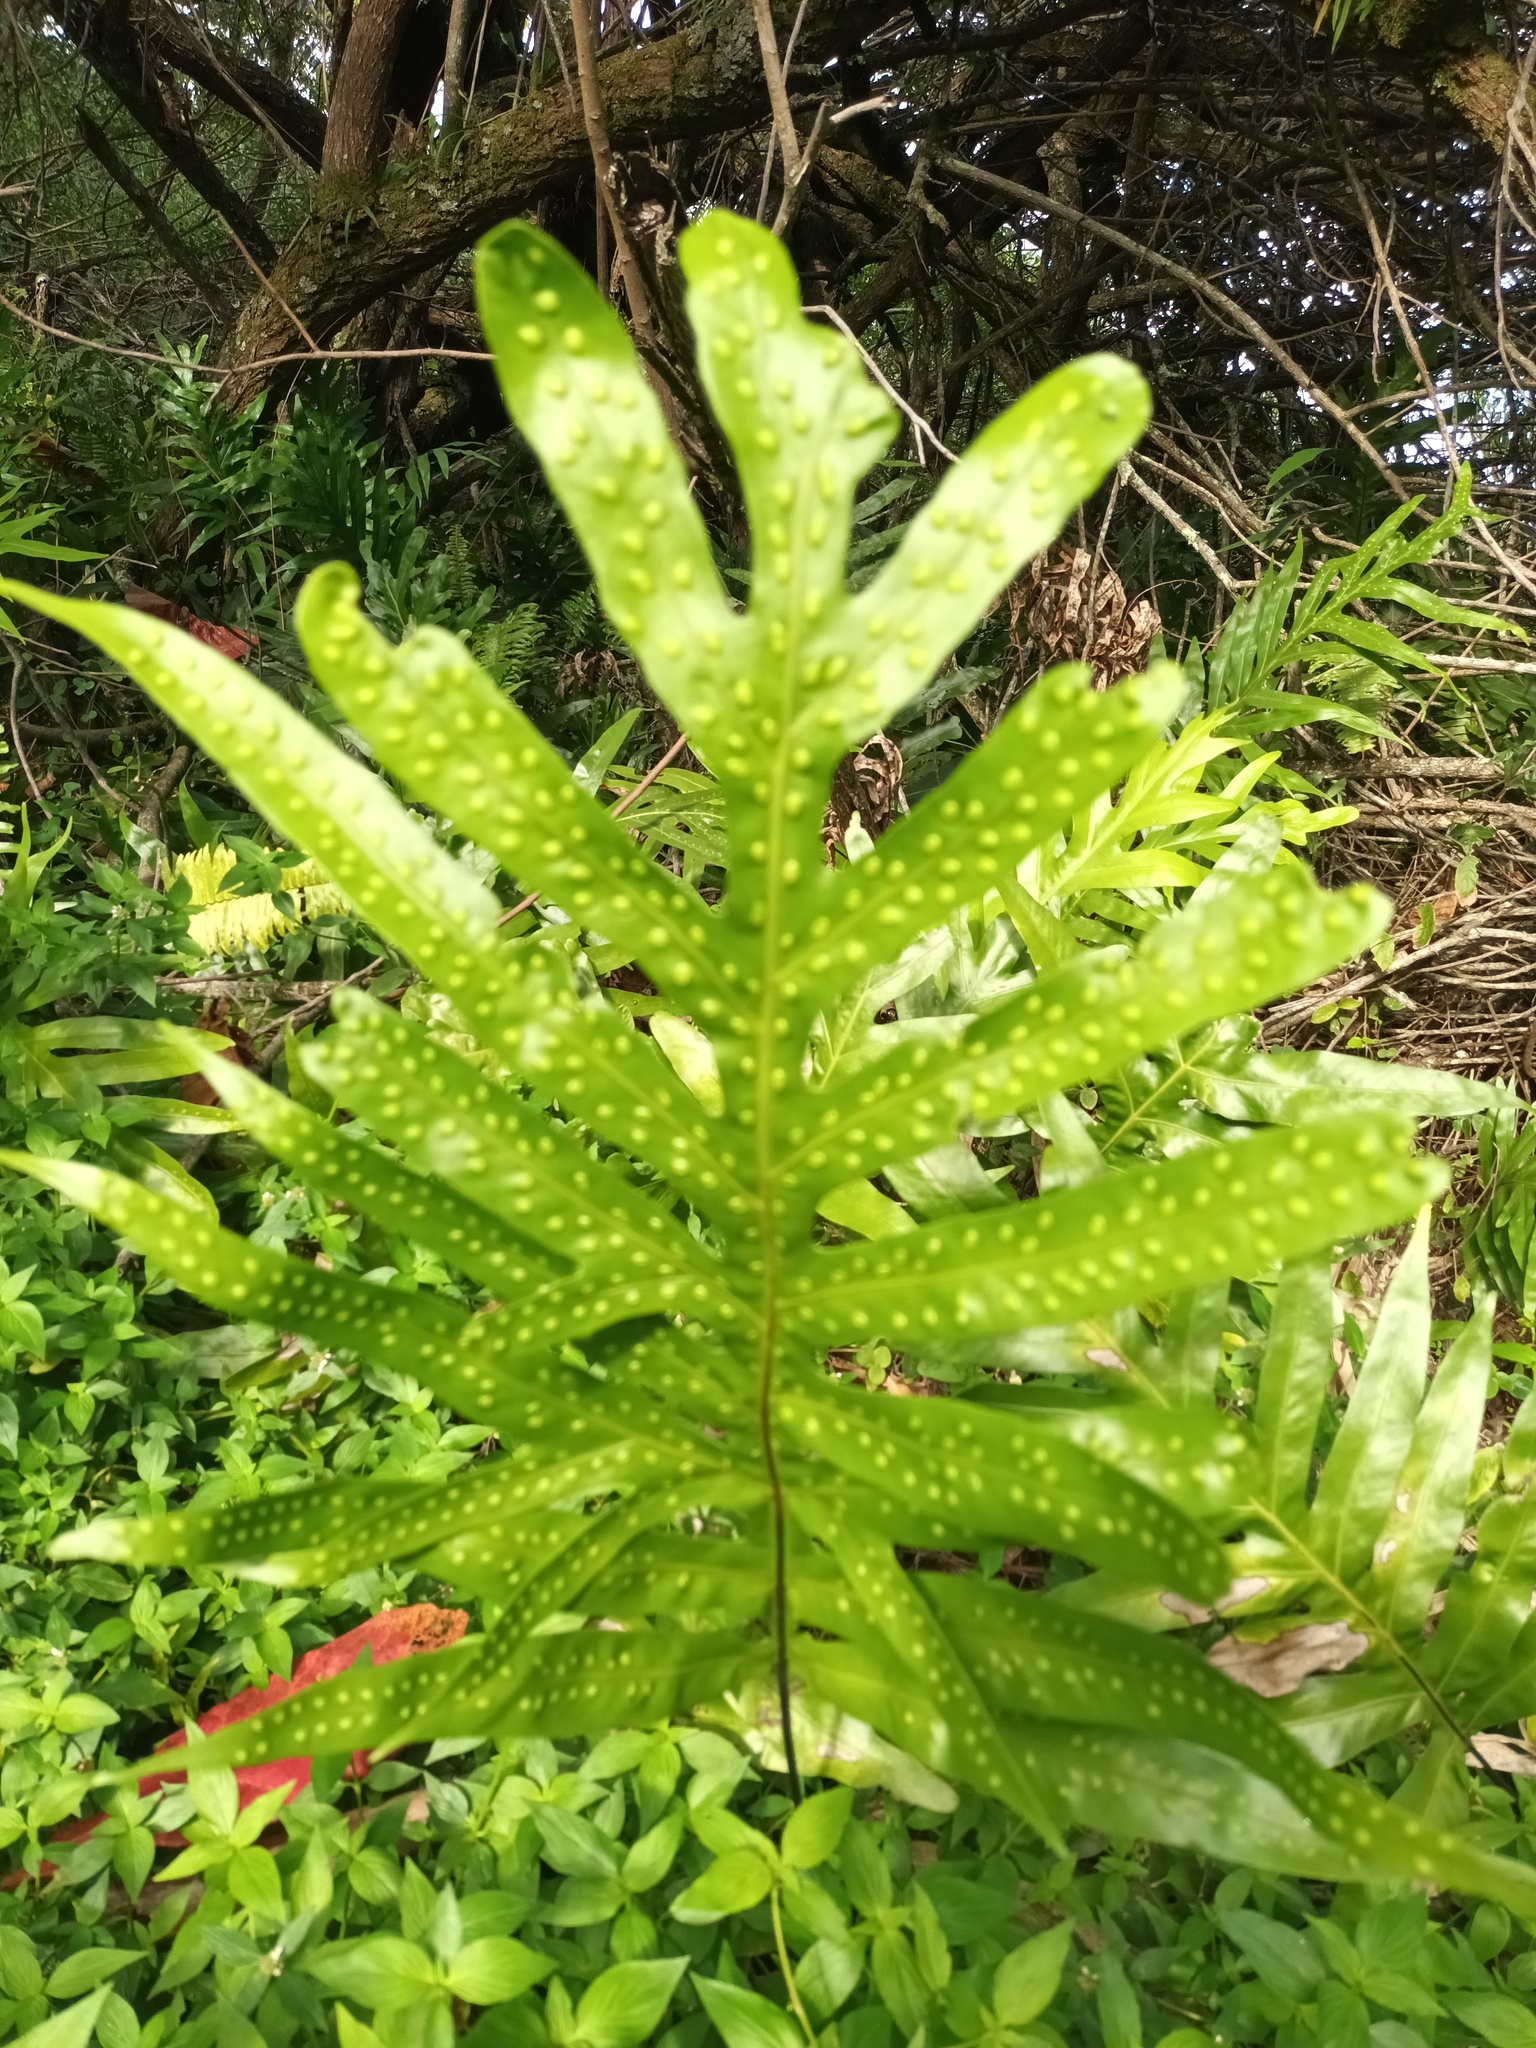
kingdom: Plantae
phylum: Tracheophyta
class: Polypodiopsida
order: Polypodiales
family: Polypodiaceae
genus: Microsorum
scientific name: Microsorum grossum
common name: Musk fern
